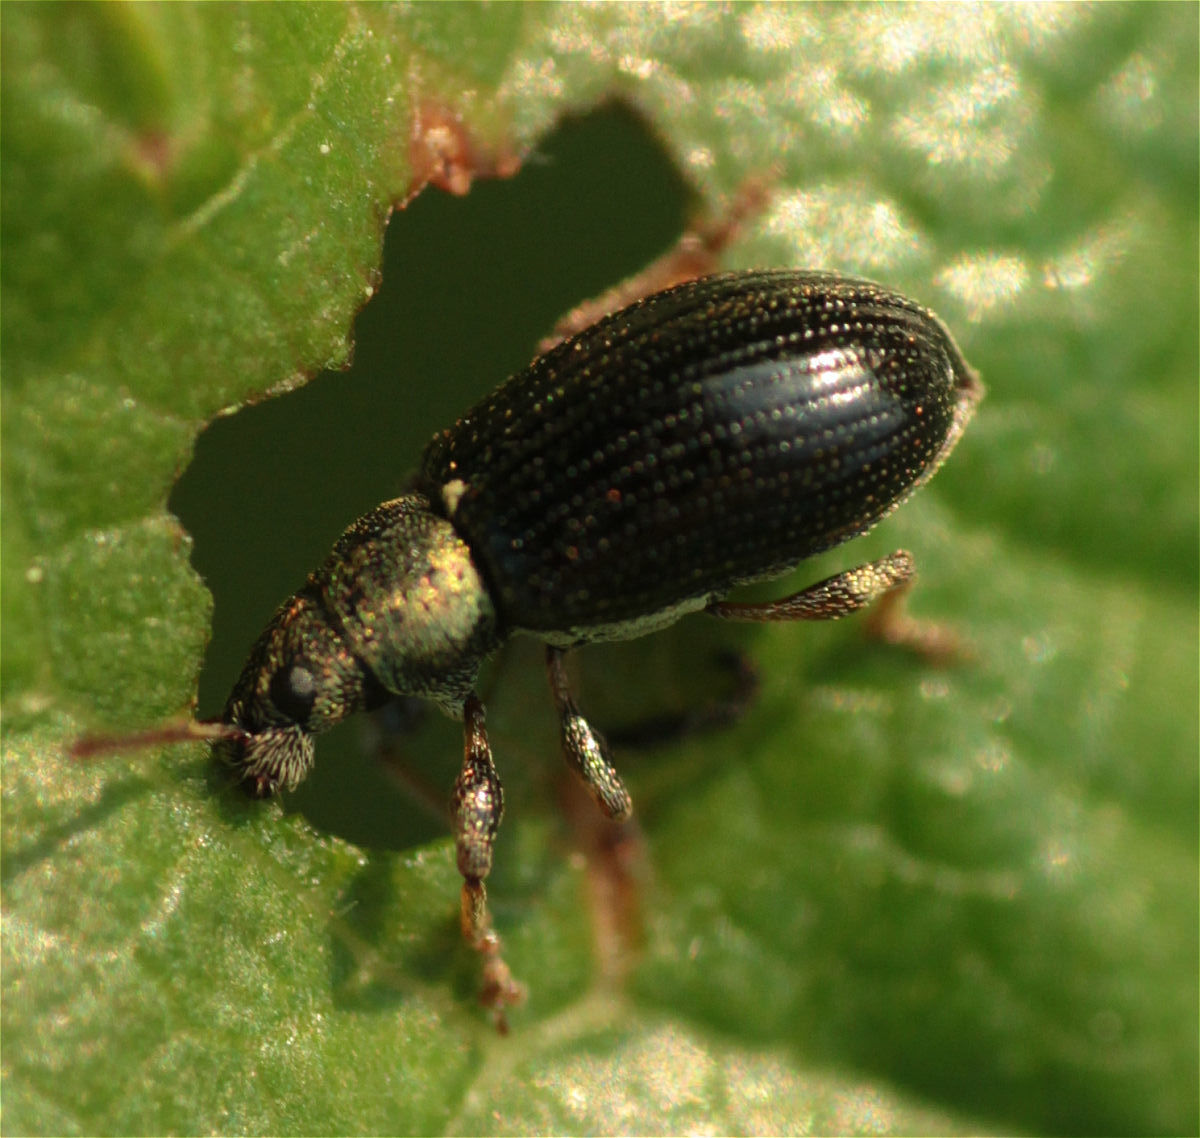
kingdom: Animalia
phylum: Arthropoda
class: Insecta
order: Coleoptera
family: Curculionidae
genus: Phyllobius
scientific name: Phyllobius viridicollis
